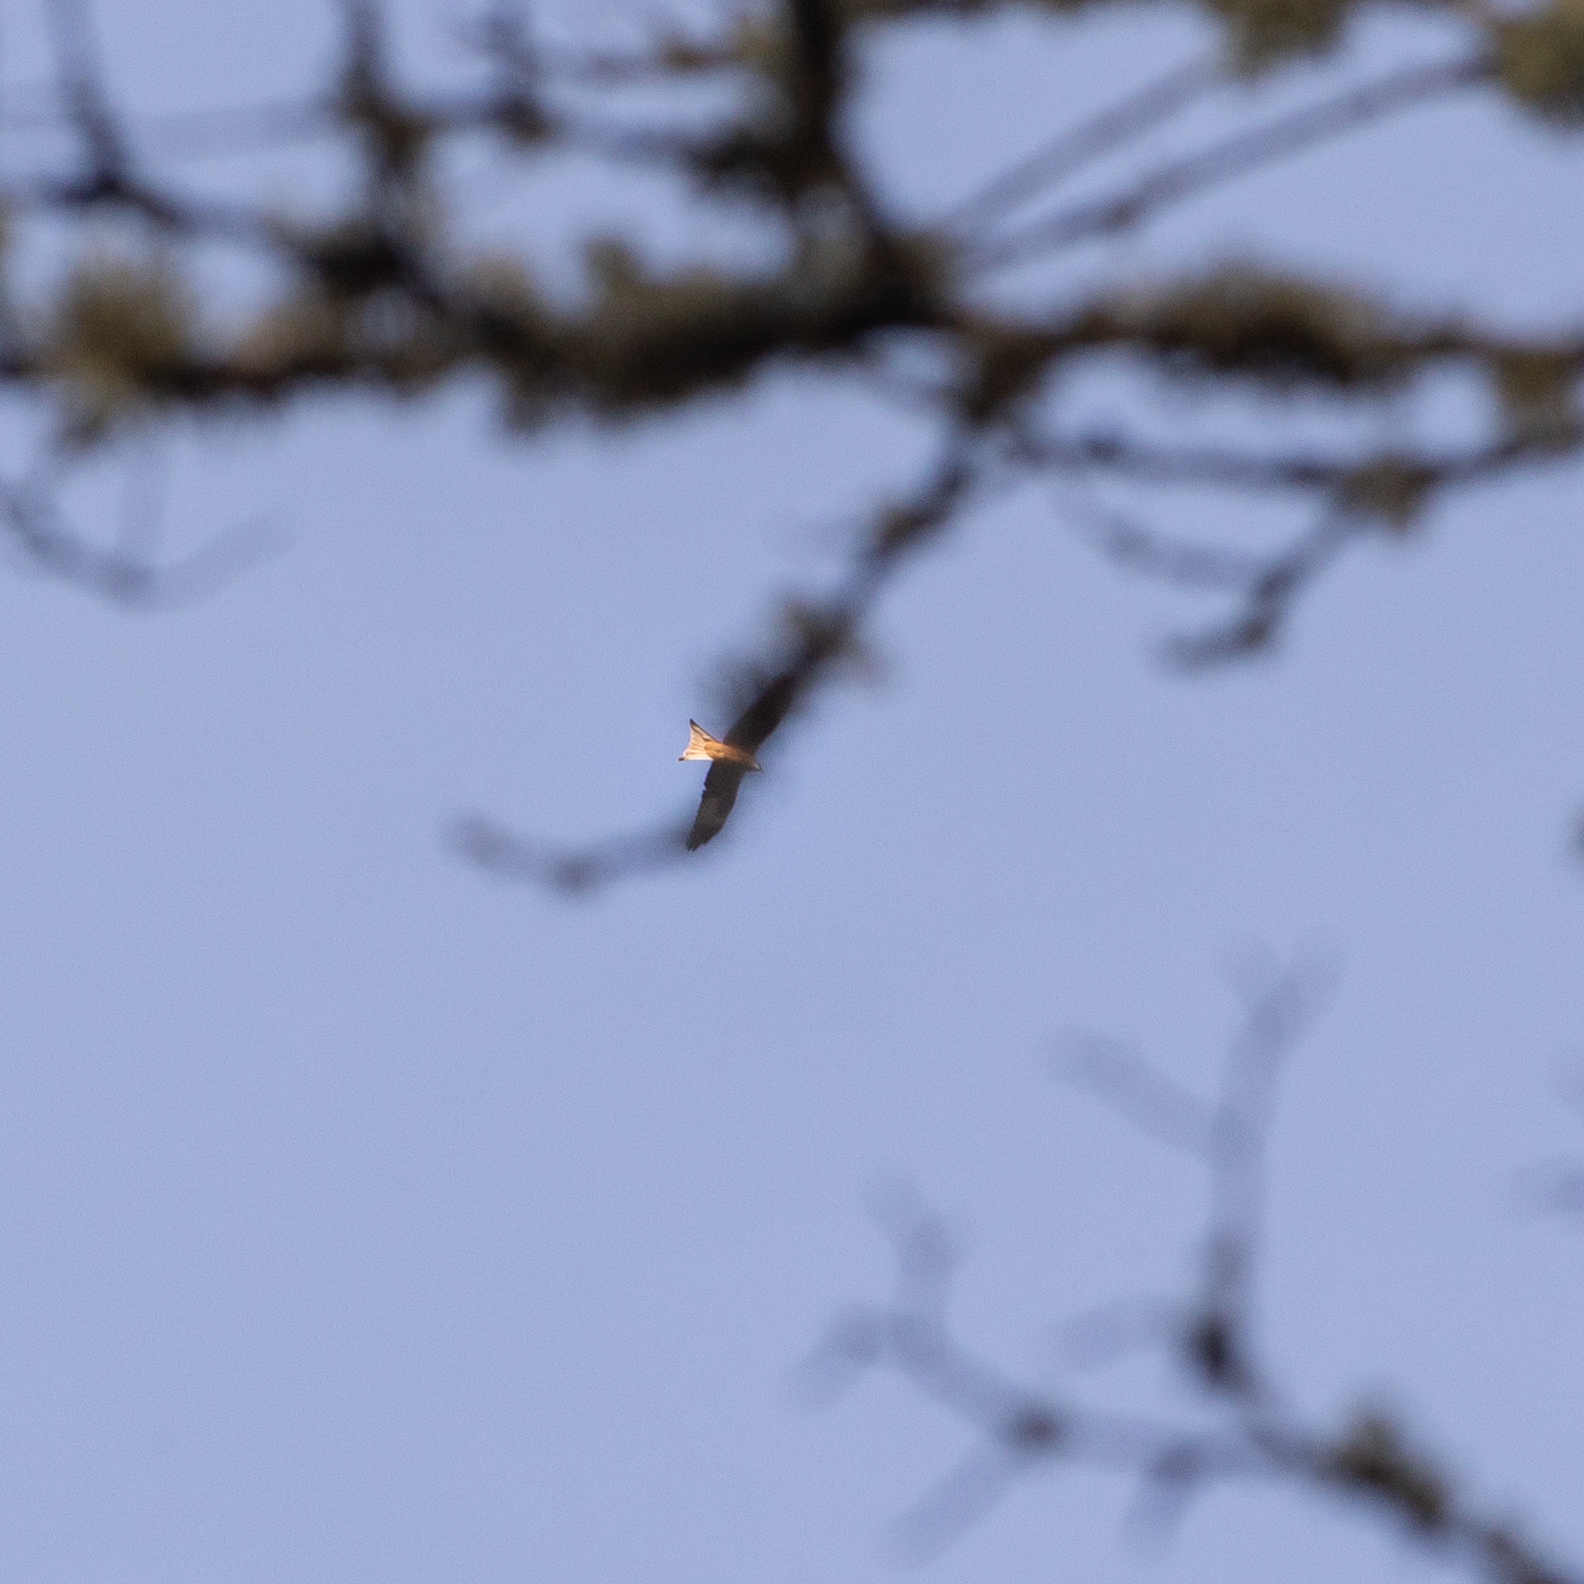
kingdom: Animalia
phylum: Chordata
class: Aves
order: Accipitriformes
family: Accipitridae
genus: Milvus
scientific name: Milvus milvus
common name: Red kite
